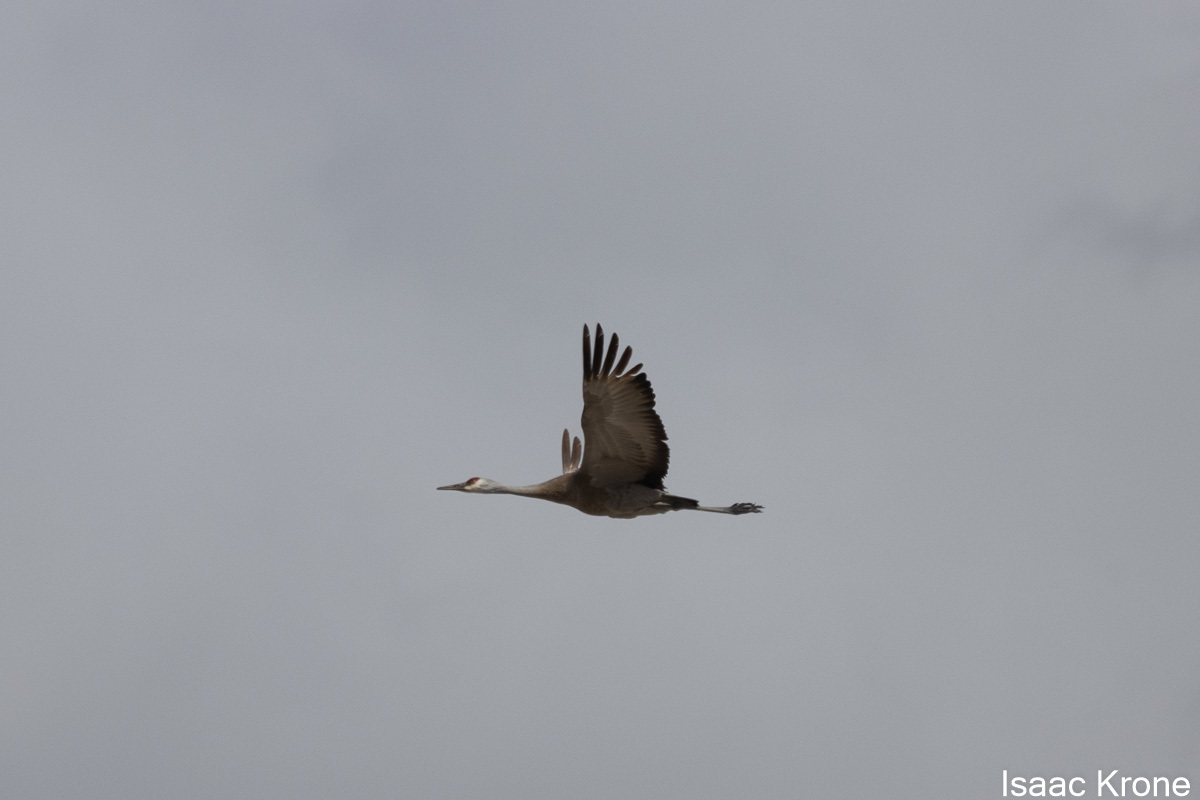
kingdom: Animalia
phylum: Chordata
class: Aves
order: Gruiformes
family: Gruidae
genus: Grus
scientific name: Grus canadensis
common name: Sandhill crane
